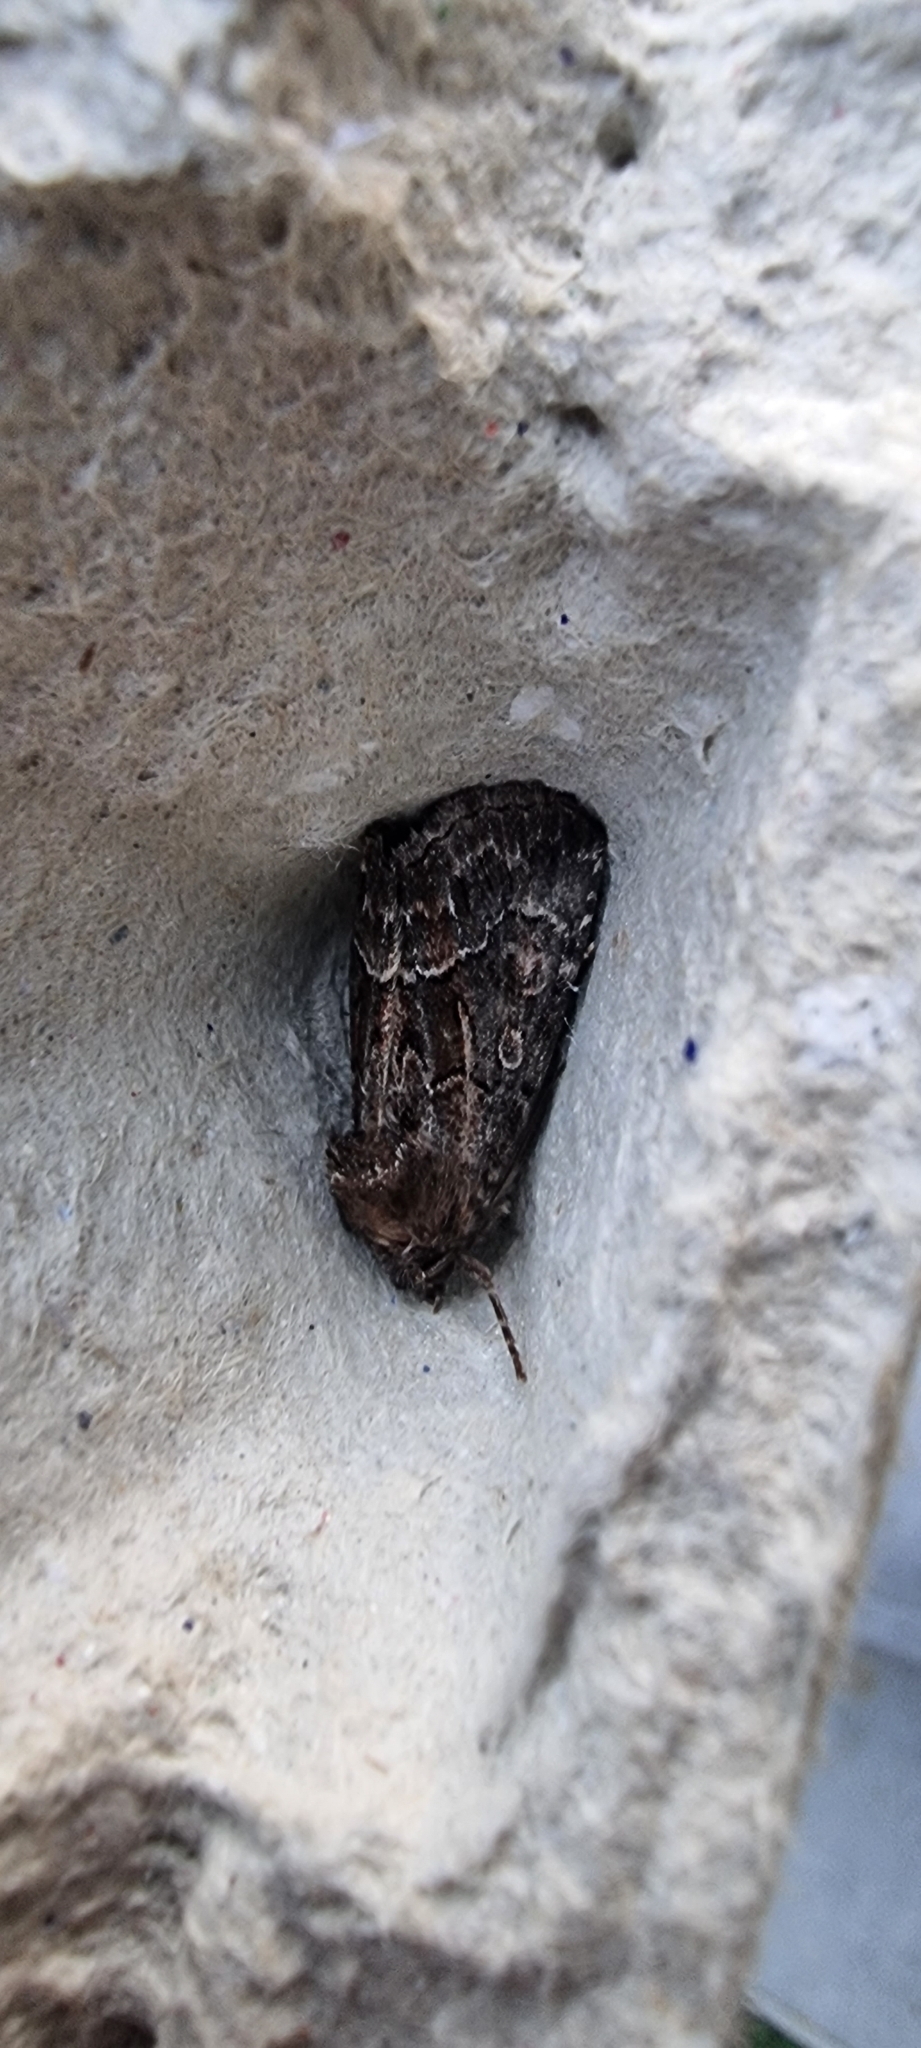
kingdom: Animalia
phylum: Arthropoda
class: Insecta
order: Lepidoptera
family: Noctuidae
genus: Thalpophila
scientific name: Thalpophila matura
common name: Straw underwing
